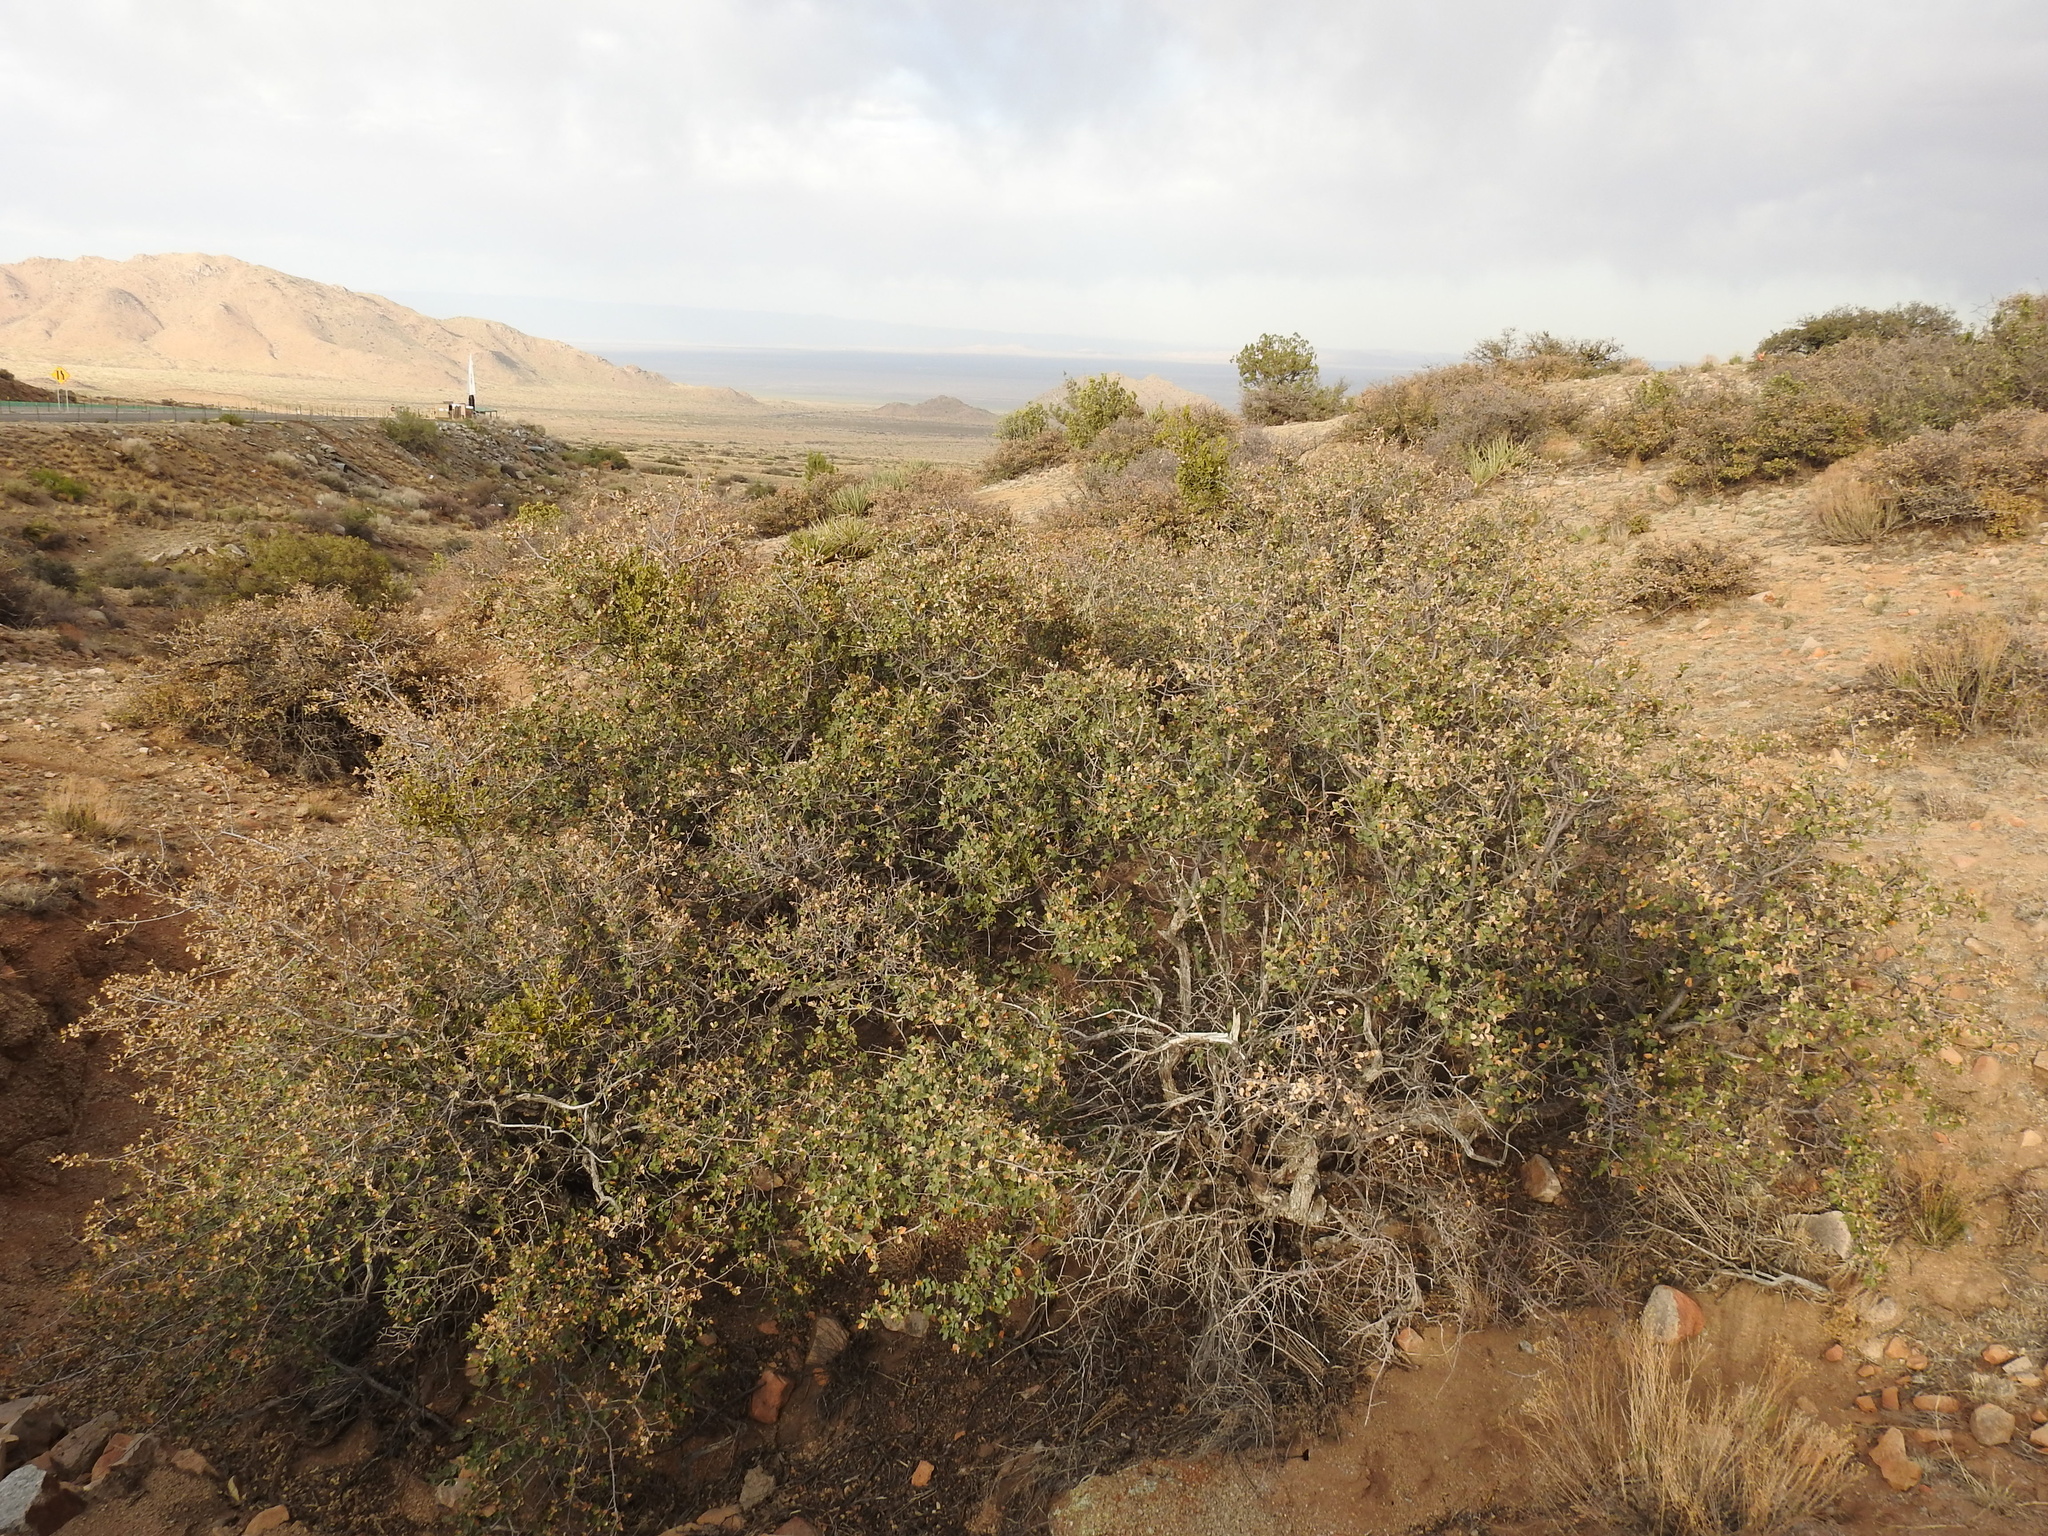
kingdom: Plantae
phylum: Tracheophyta
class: Magnoliopsida
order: Fagales
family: Fagaceae
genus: Quercus
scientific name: Quercus turbinella
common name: Sonoran scrub oak
